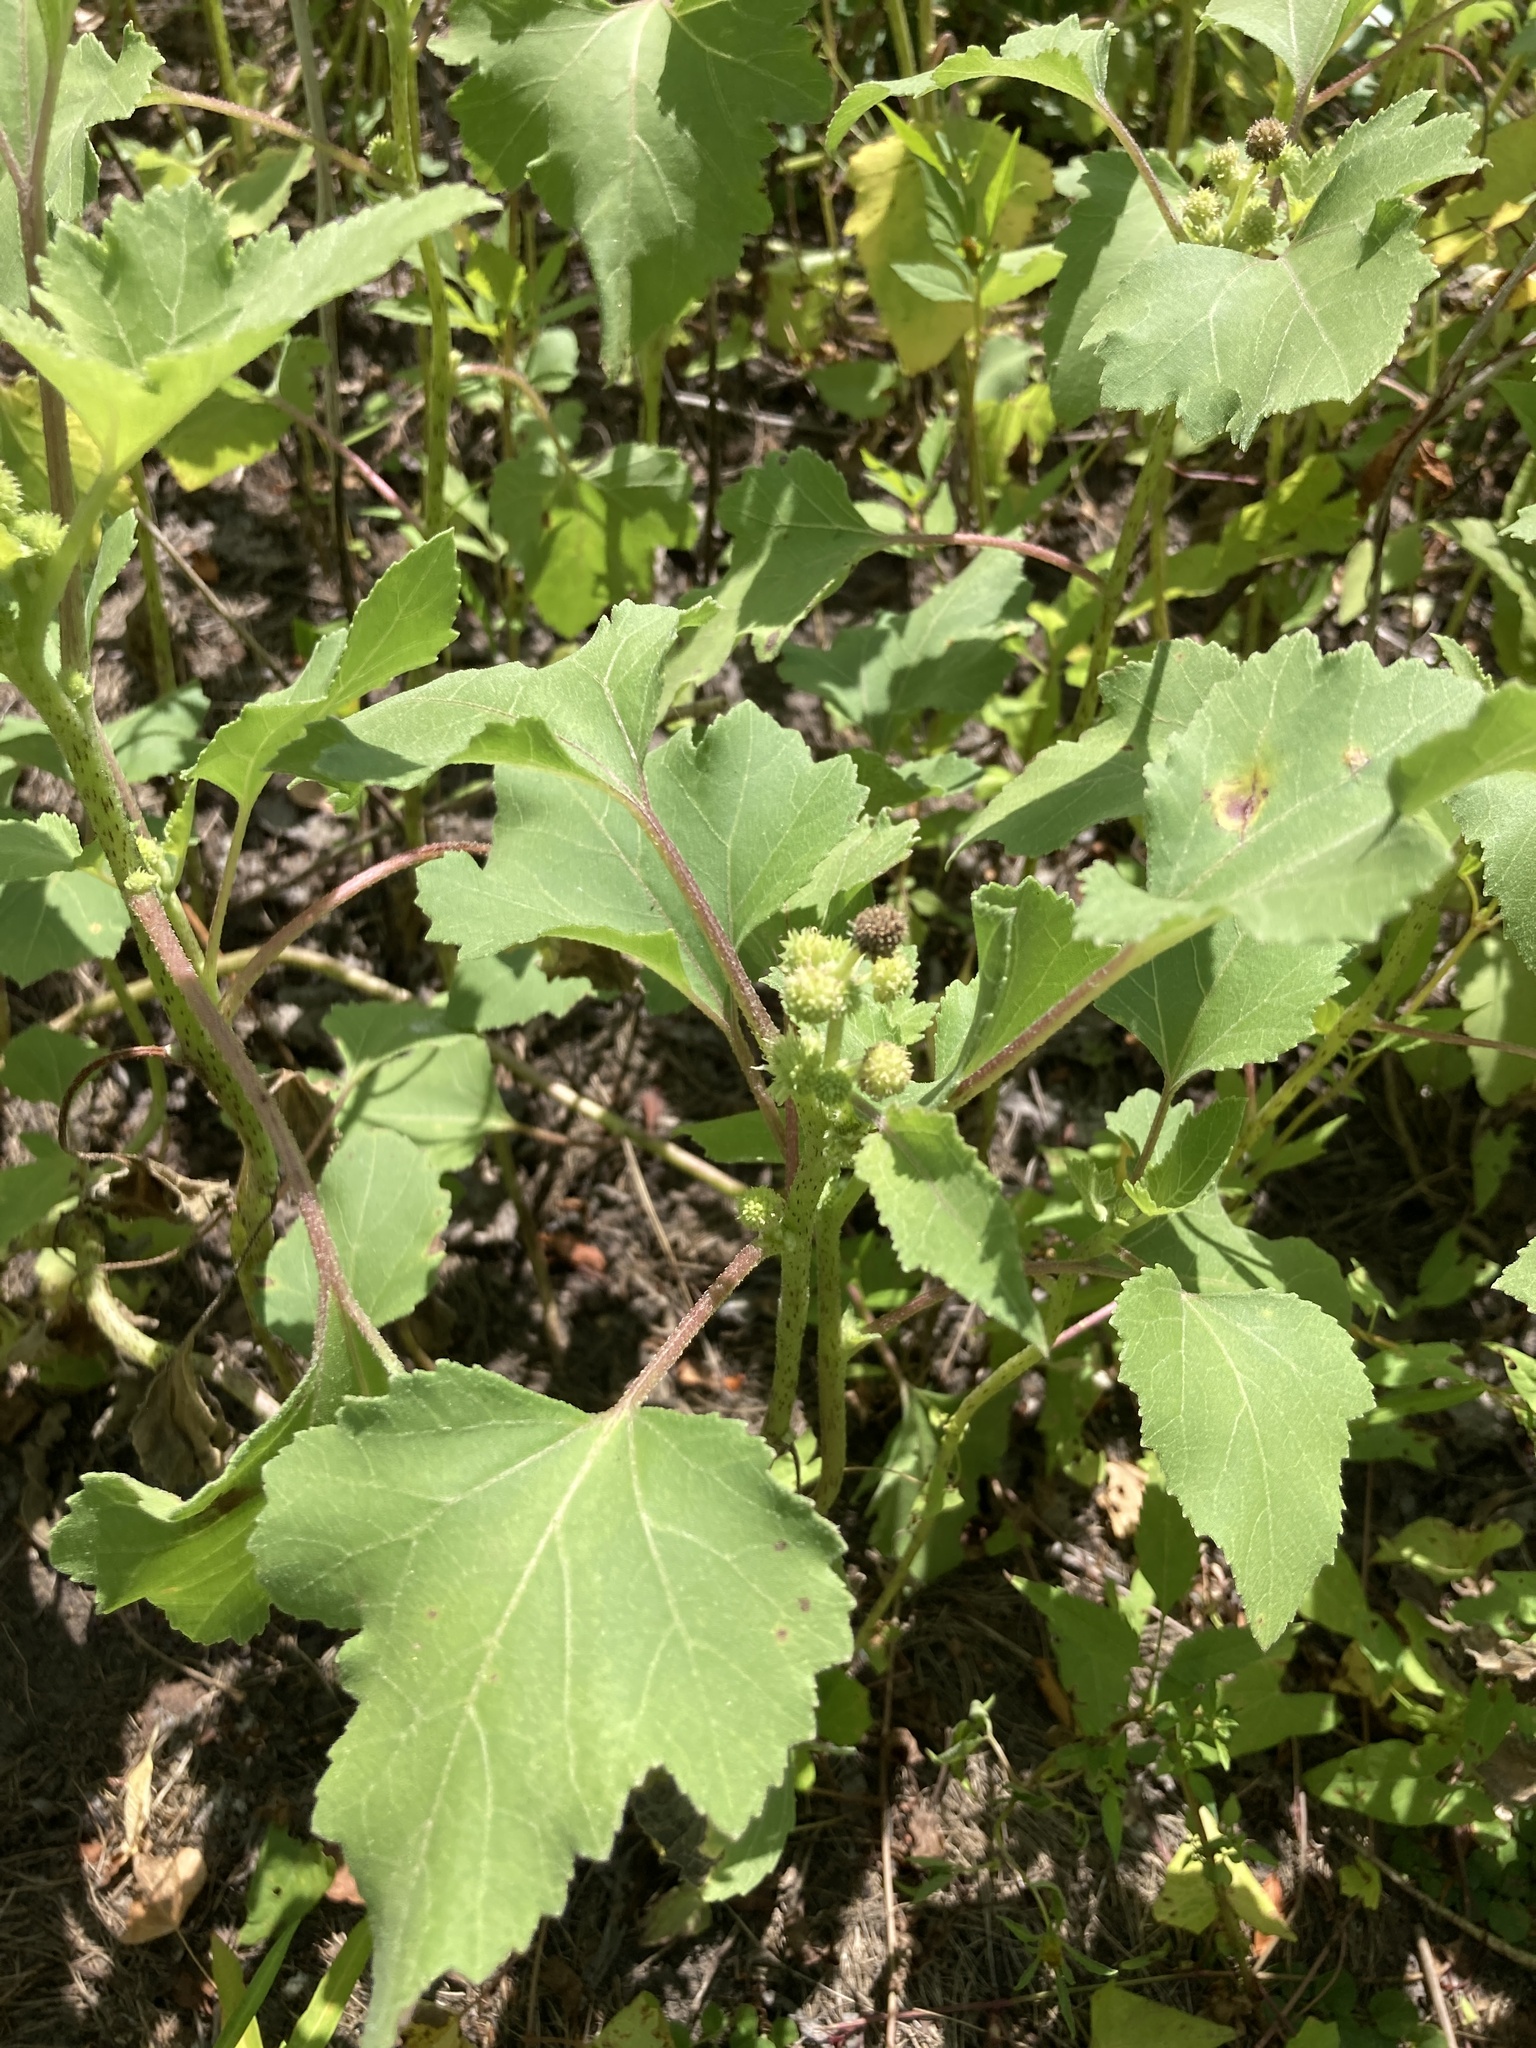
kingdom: Plantae
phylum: Tracheophyta
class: Magnoliopsida
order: Asterales
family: Asteraceae
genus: Xanthium
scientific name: Xanthium orientale
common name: Californian burr
